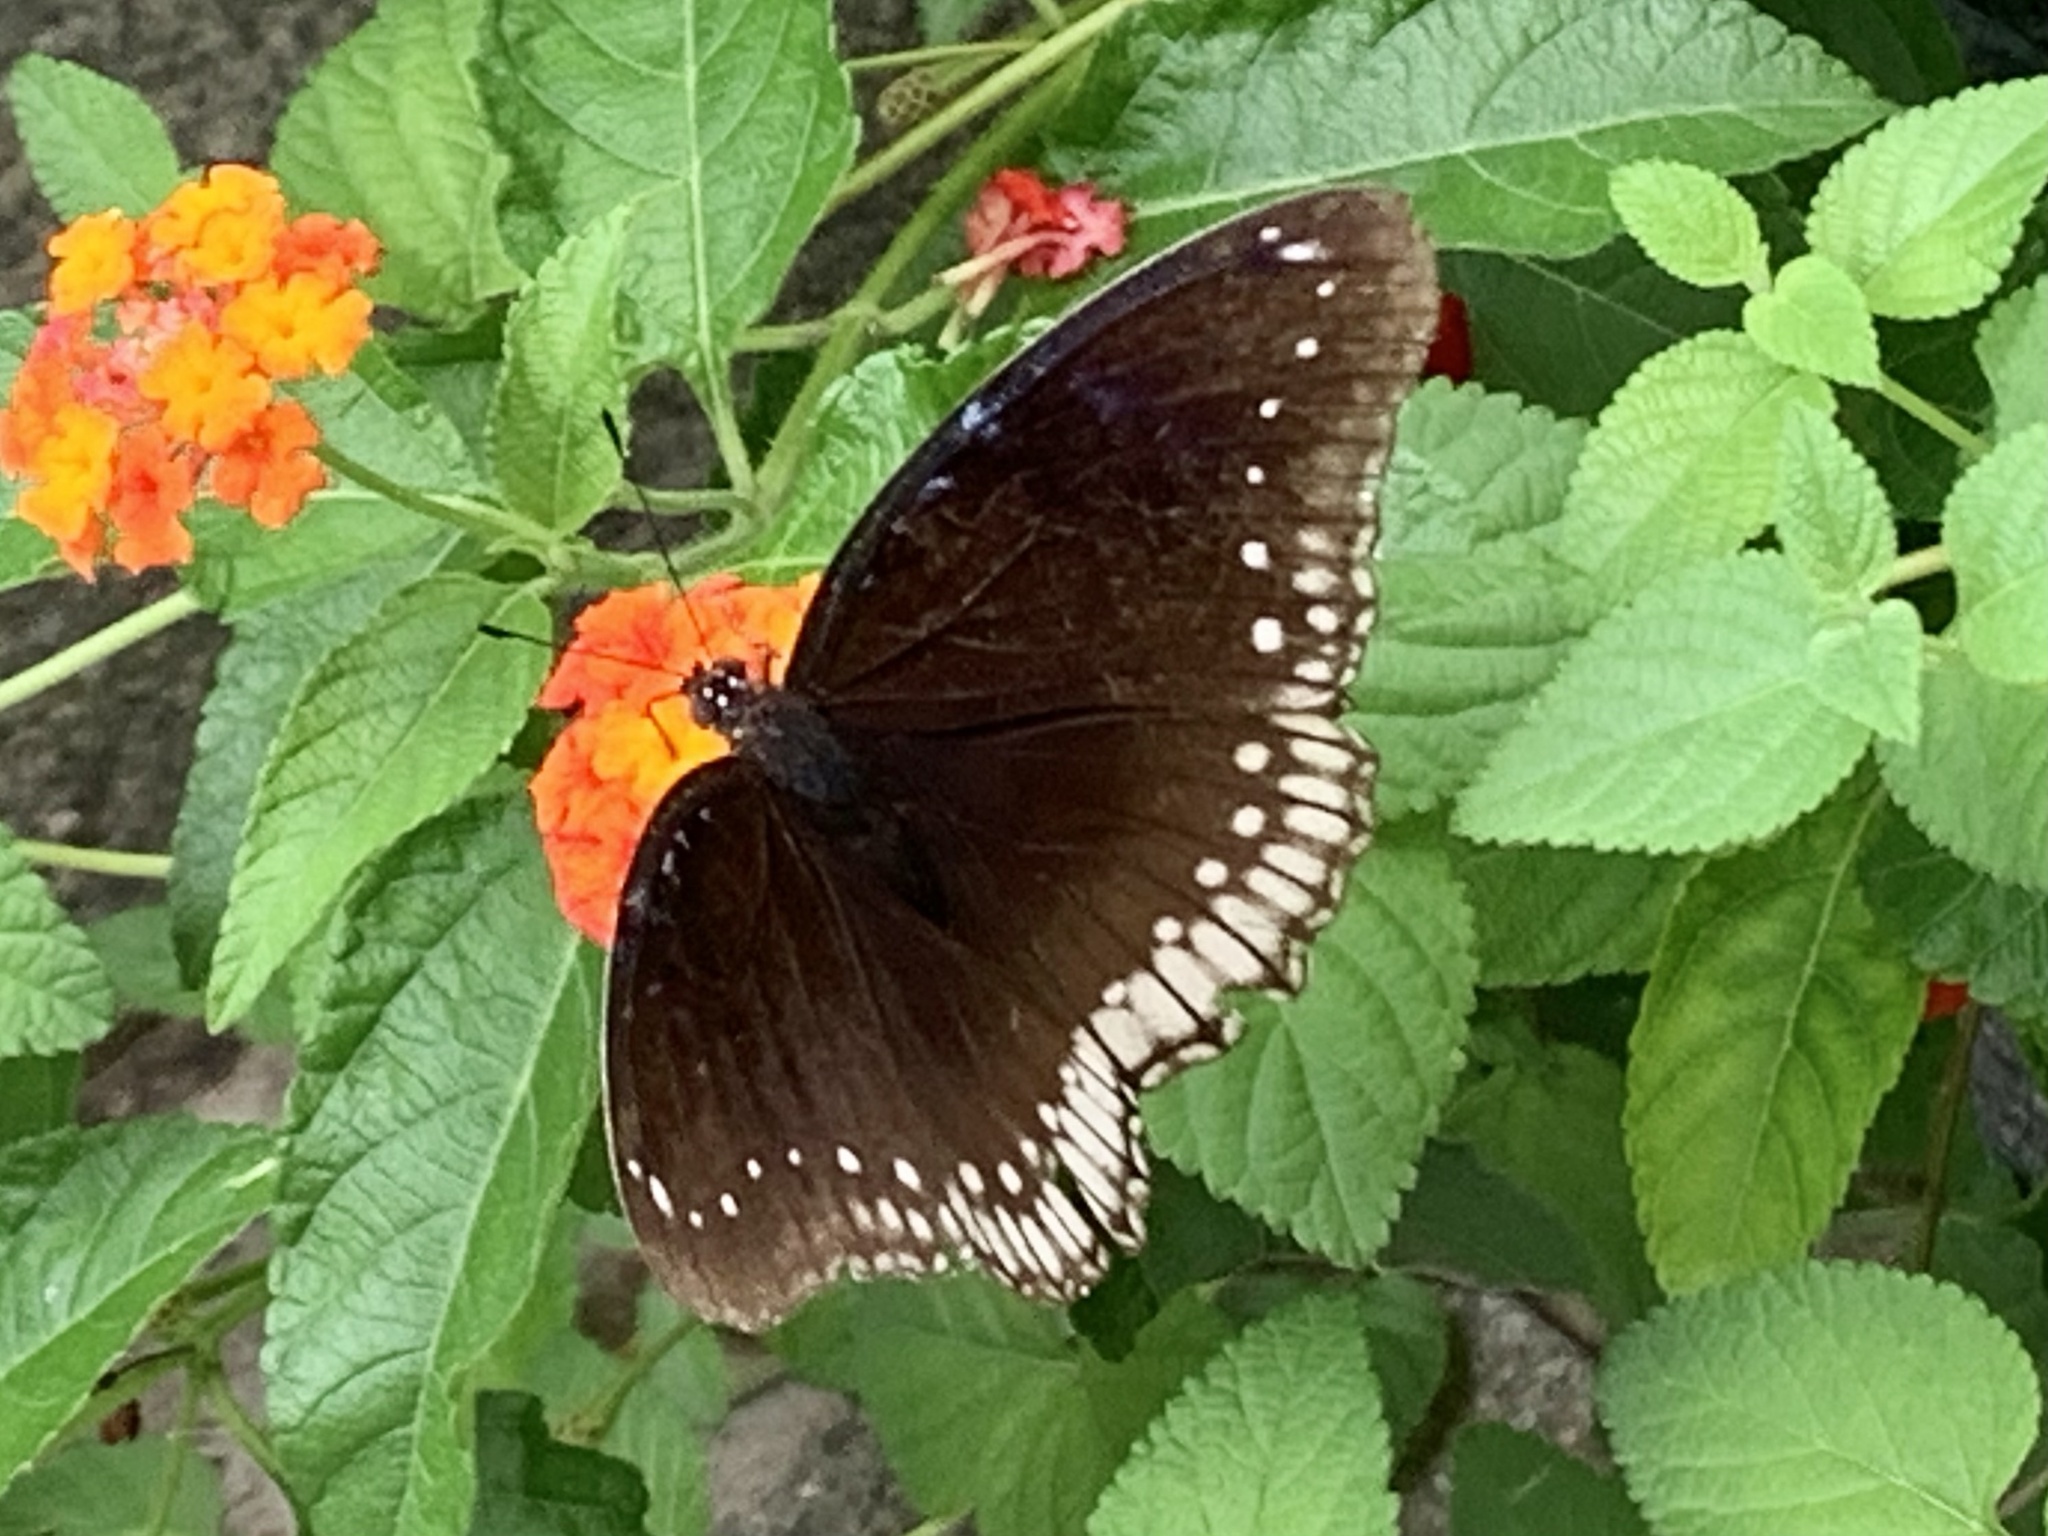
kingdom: Animalia
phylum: Arthropoda
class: Insecta
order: Lepidoptera
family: Nymphalidae
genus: Hypolimnas
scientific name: Hypolimnas bolina
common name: Great eggfly
